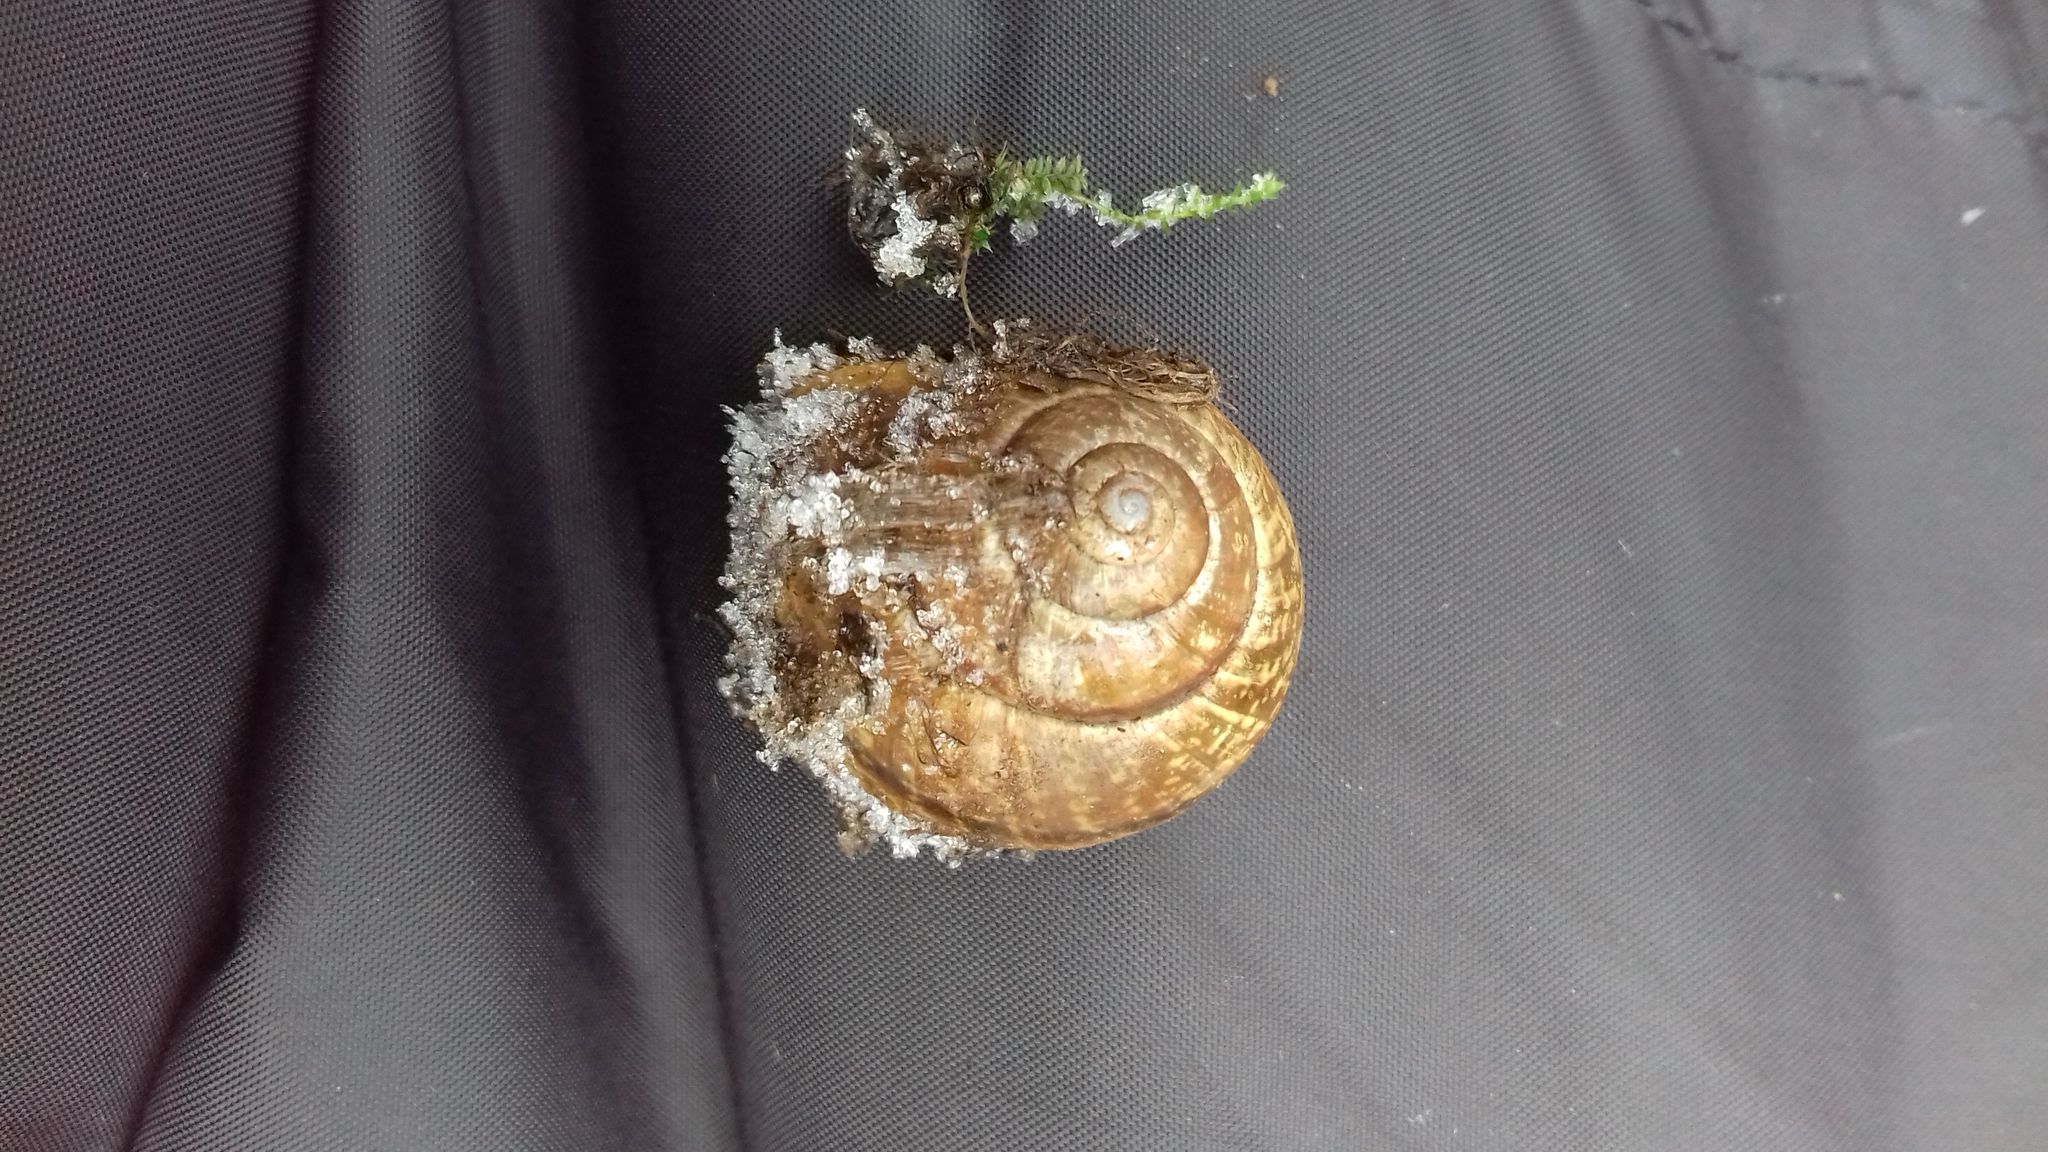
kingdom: Animalia
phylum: Mollusca
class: Gastropoda
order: Stylommatophora
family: Helicidae
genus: Arianta
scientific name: Arianta arbustorum
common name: Copse snail
